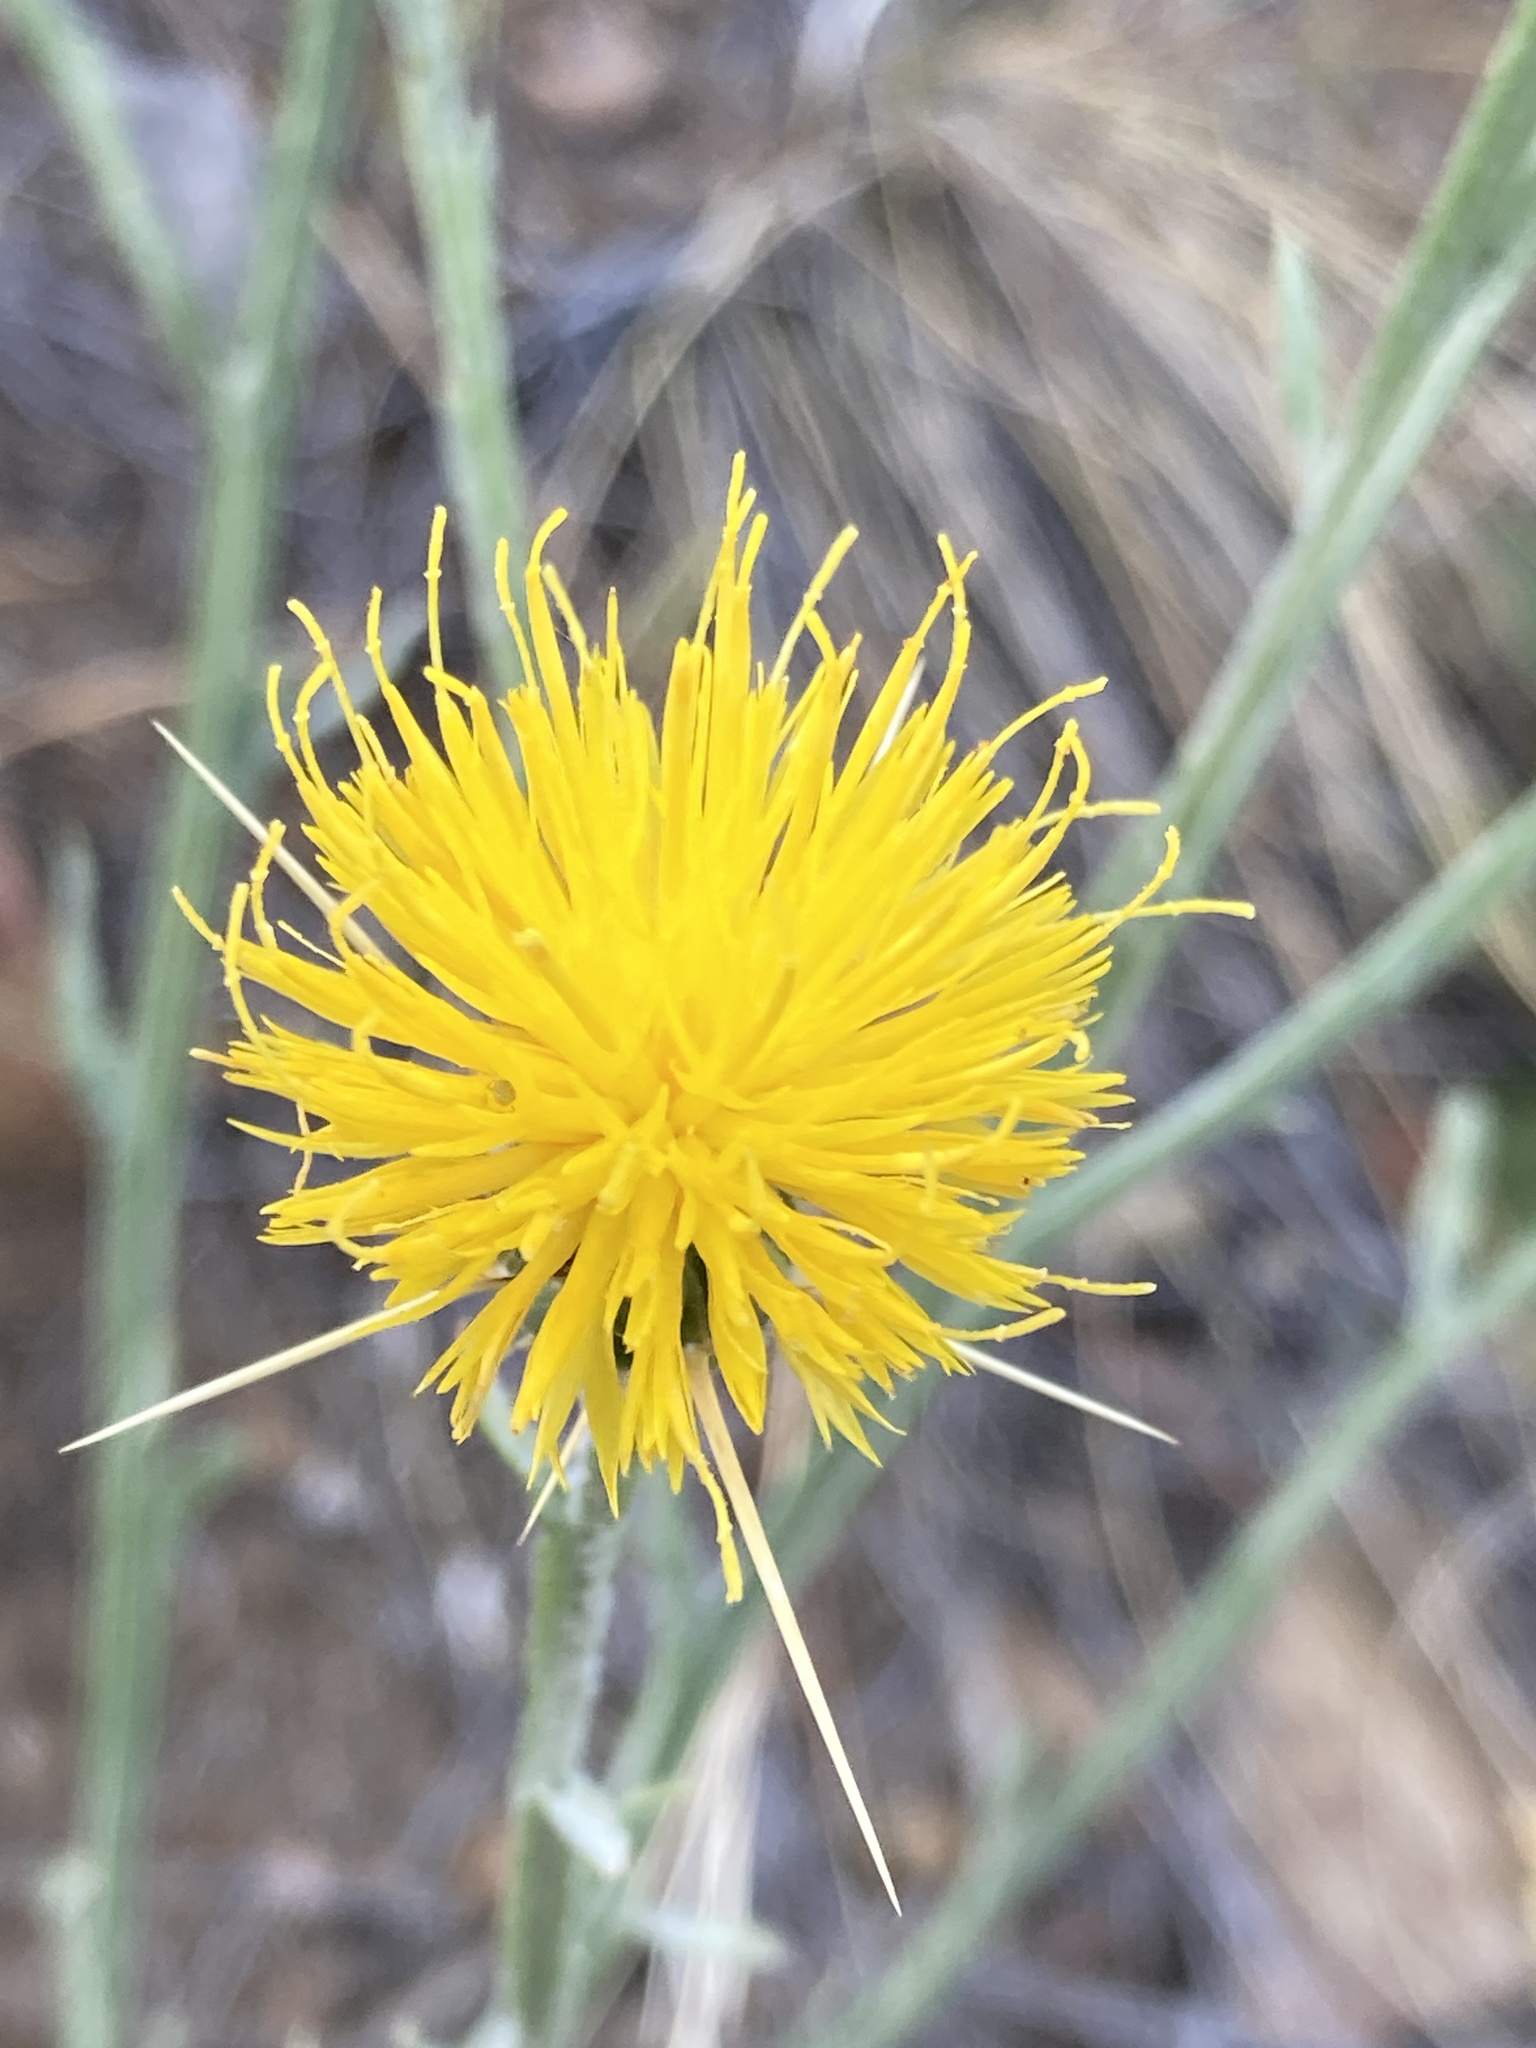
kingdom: Plantae
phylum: Tracheophyta
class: Magnoliopsida
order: Asterales
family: Asteraceae
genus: Centaurea
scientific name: Centaurea solstitialis
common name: Yellow star-thistle
